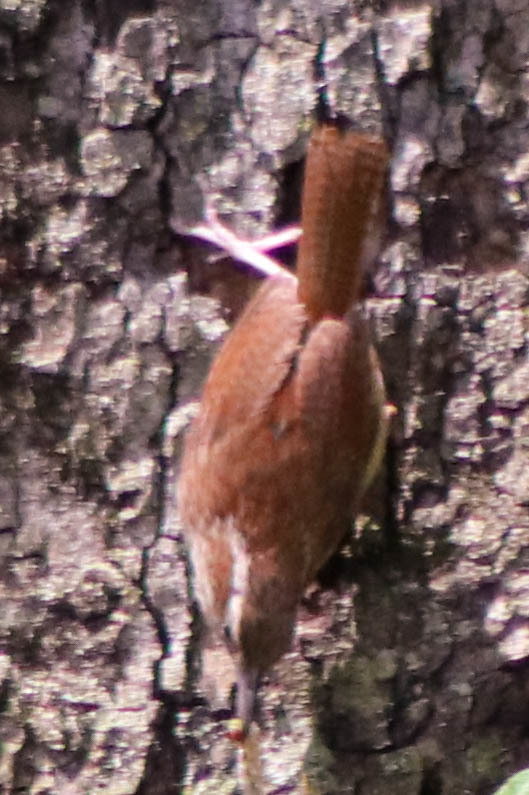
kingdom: Animalia
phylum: Chordata
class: Aves
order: Passeriformes
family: Troglodytidae
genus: Thryothorus
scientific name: Thryothorus ludovicianus
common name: Carolina wren
